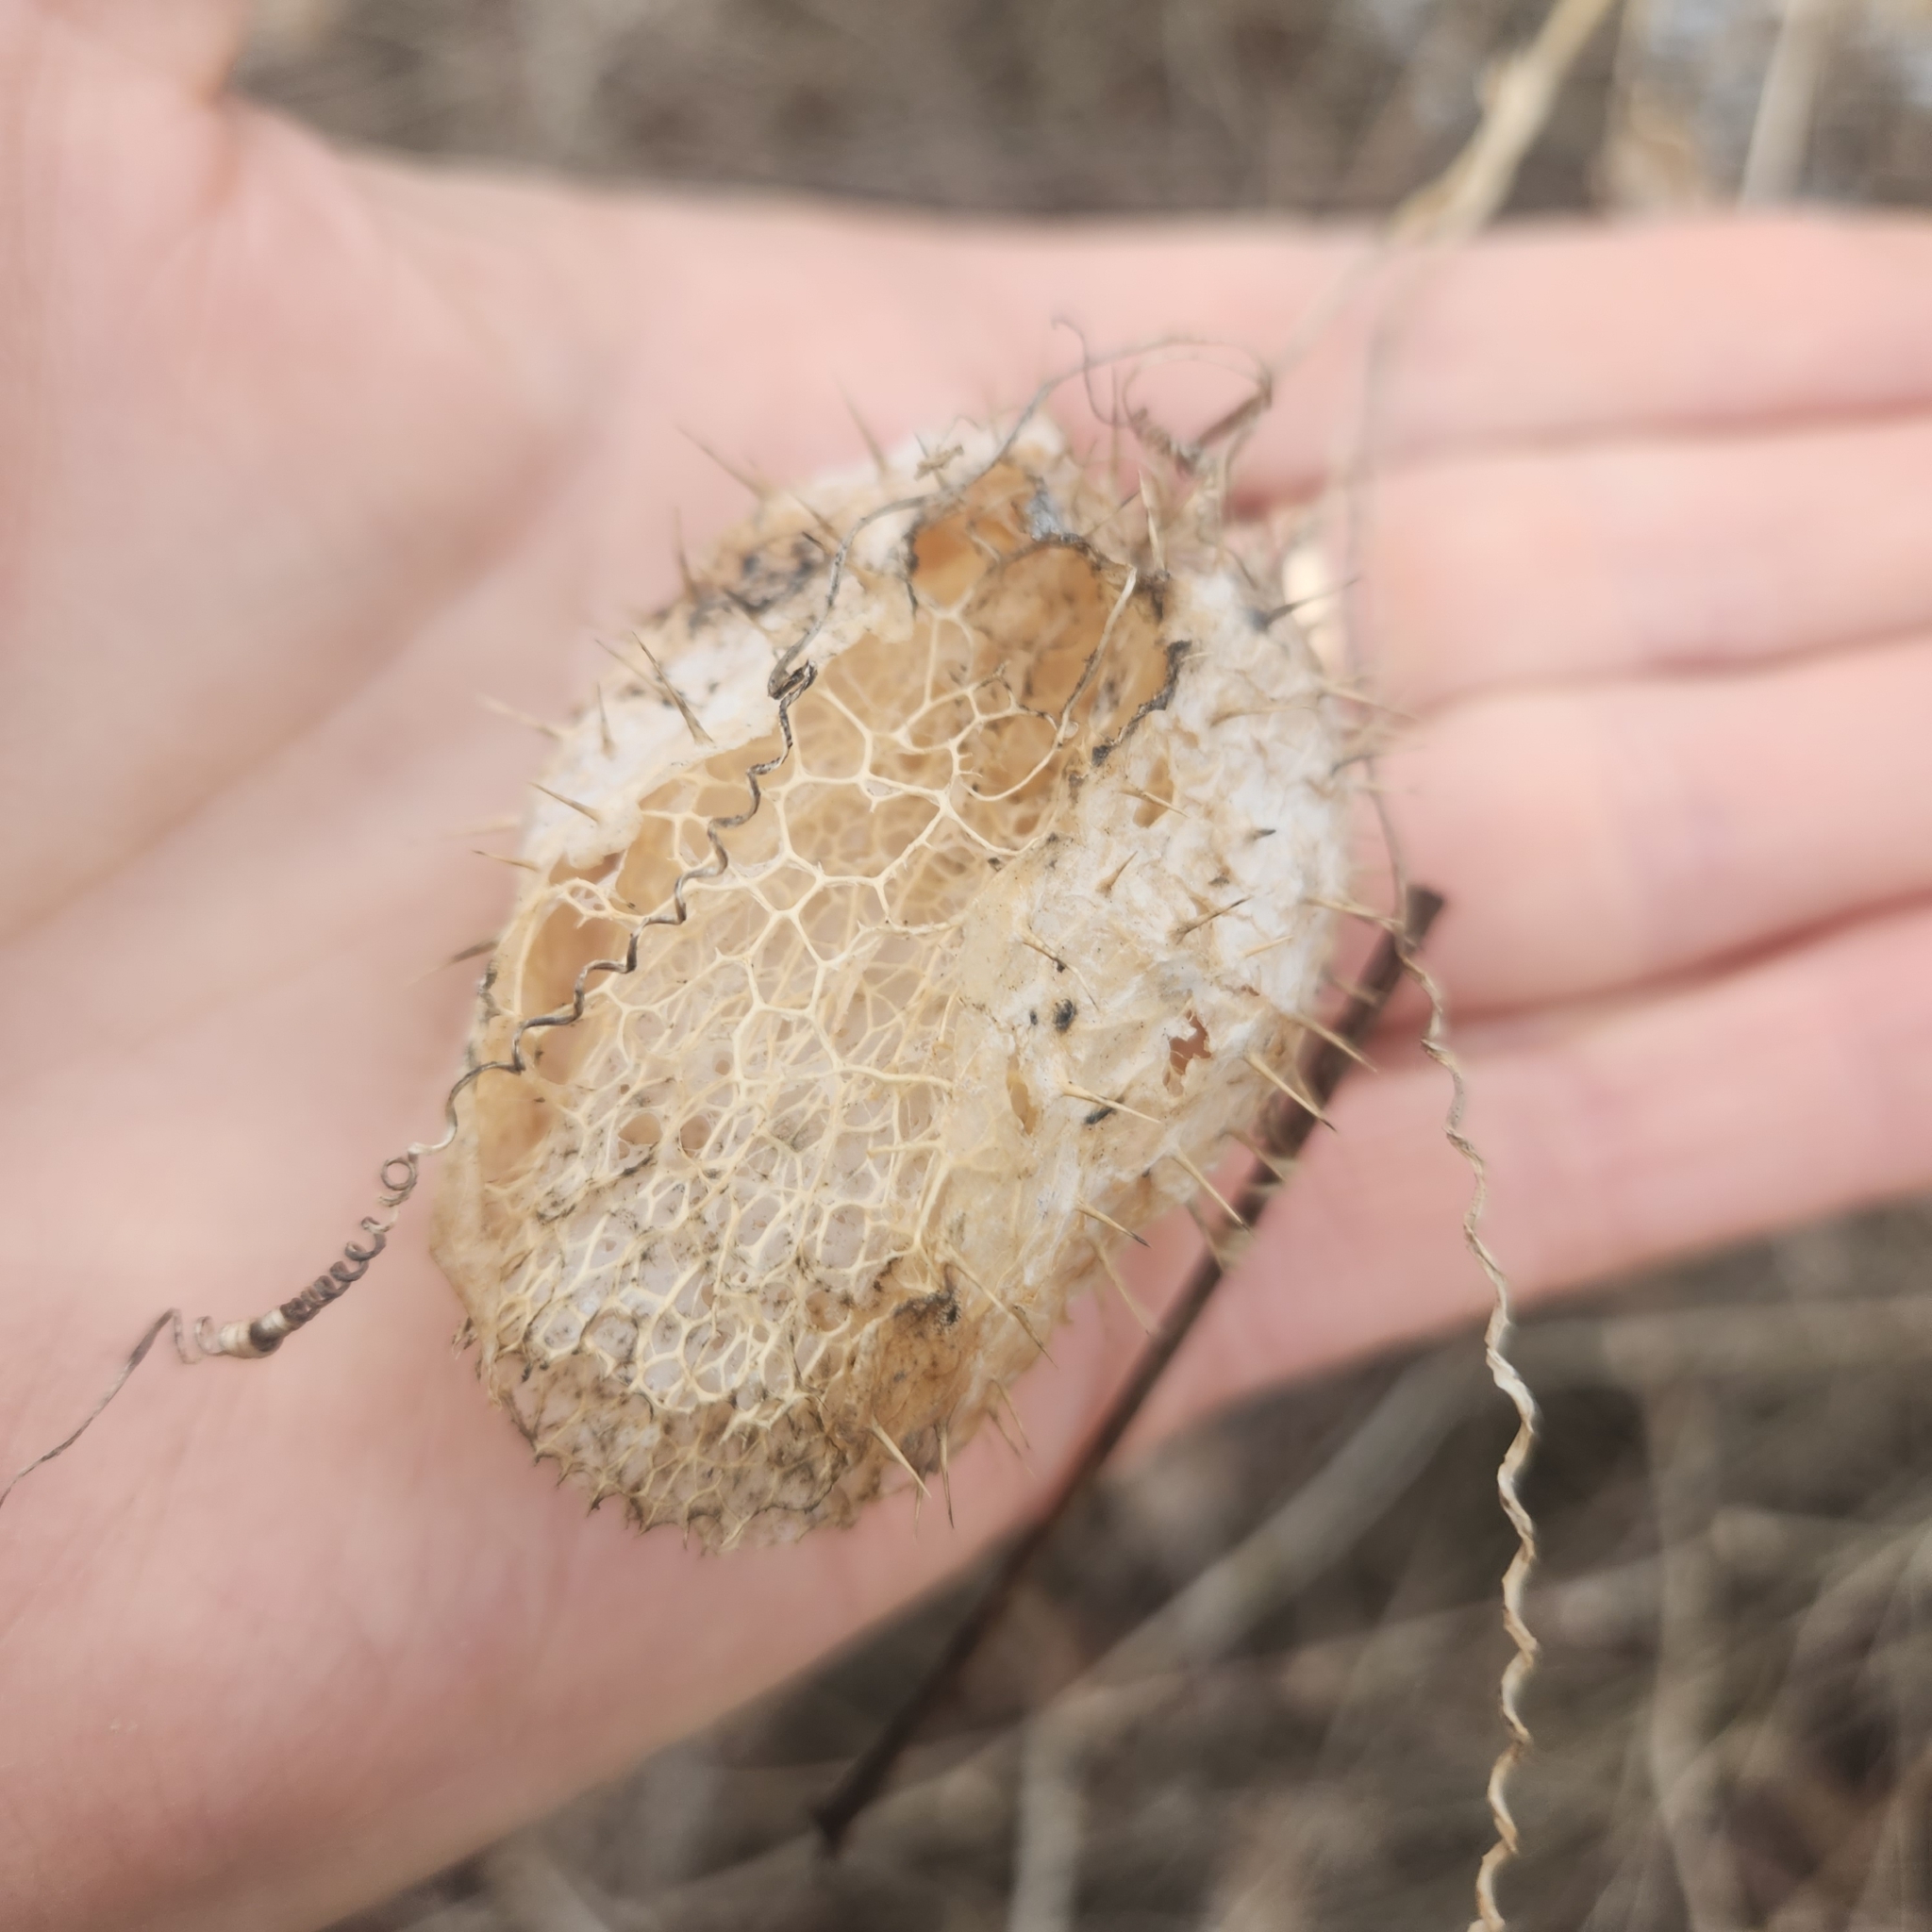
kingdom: Plantae
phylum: Tracheophyta
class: Magnoliopsida
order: Cucurbitales
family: Cucurbitaceae
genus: Echinocystis
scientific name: Echinocystis lobata
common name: Wild cucumber
